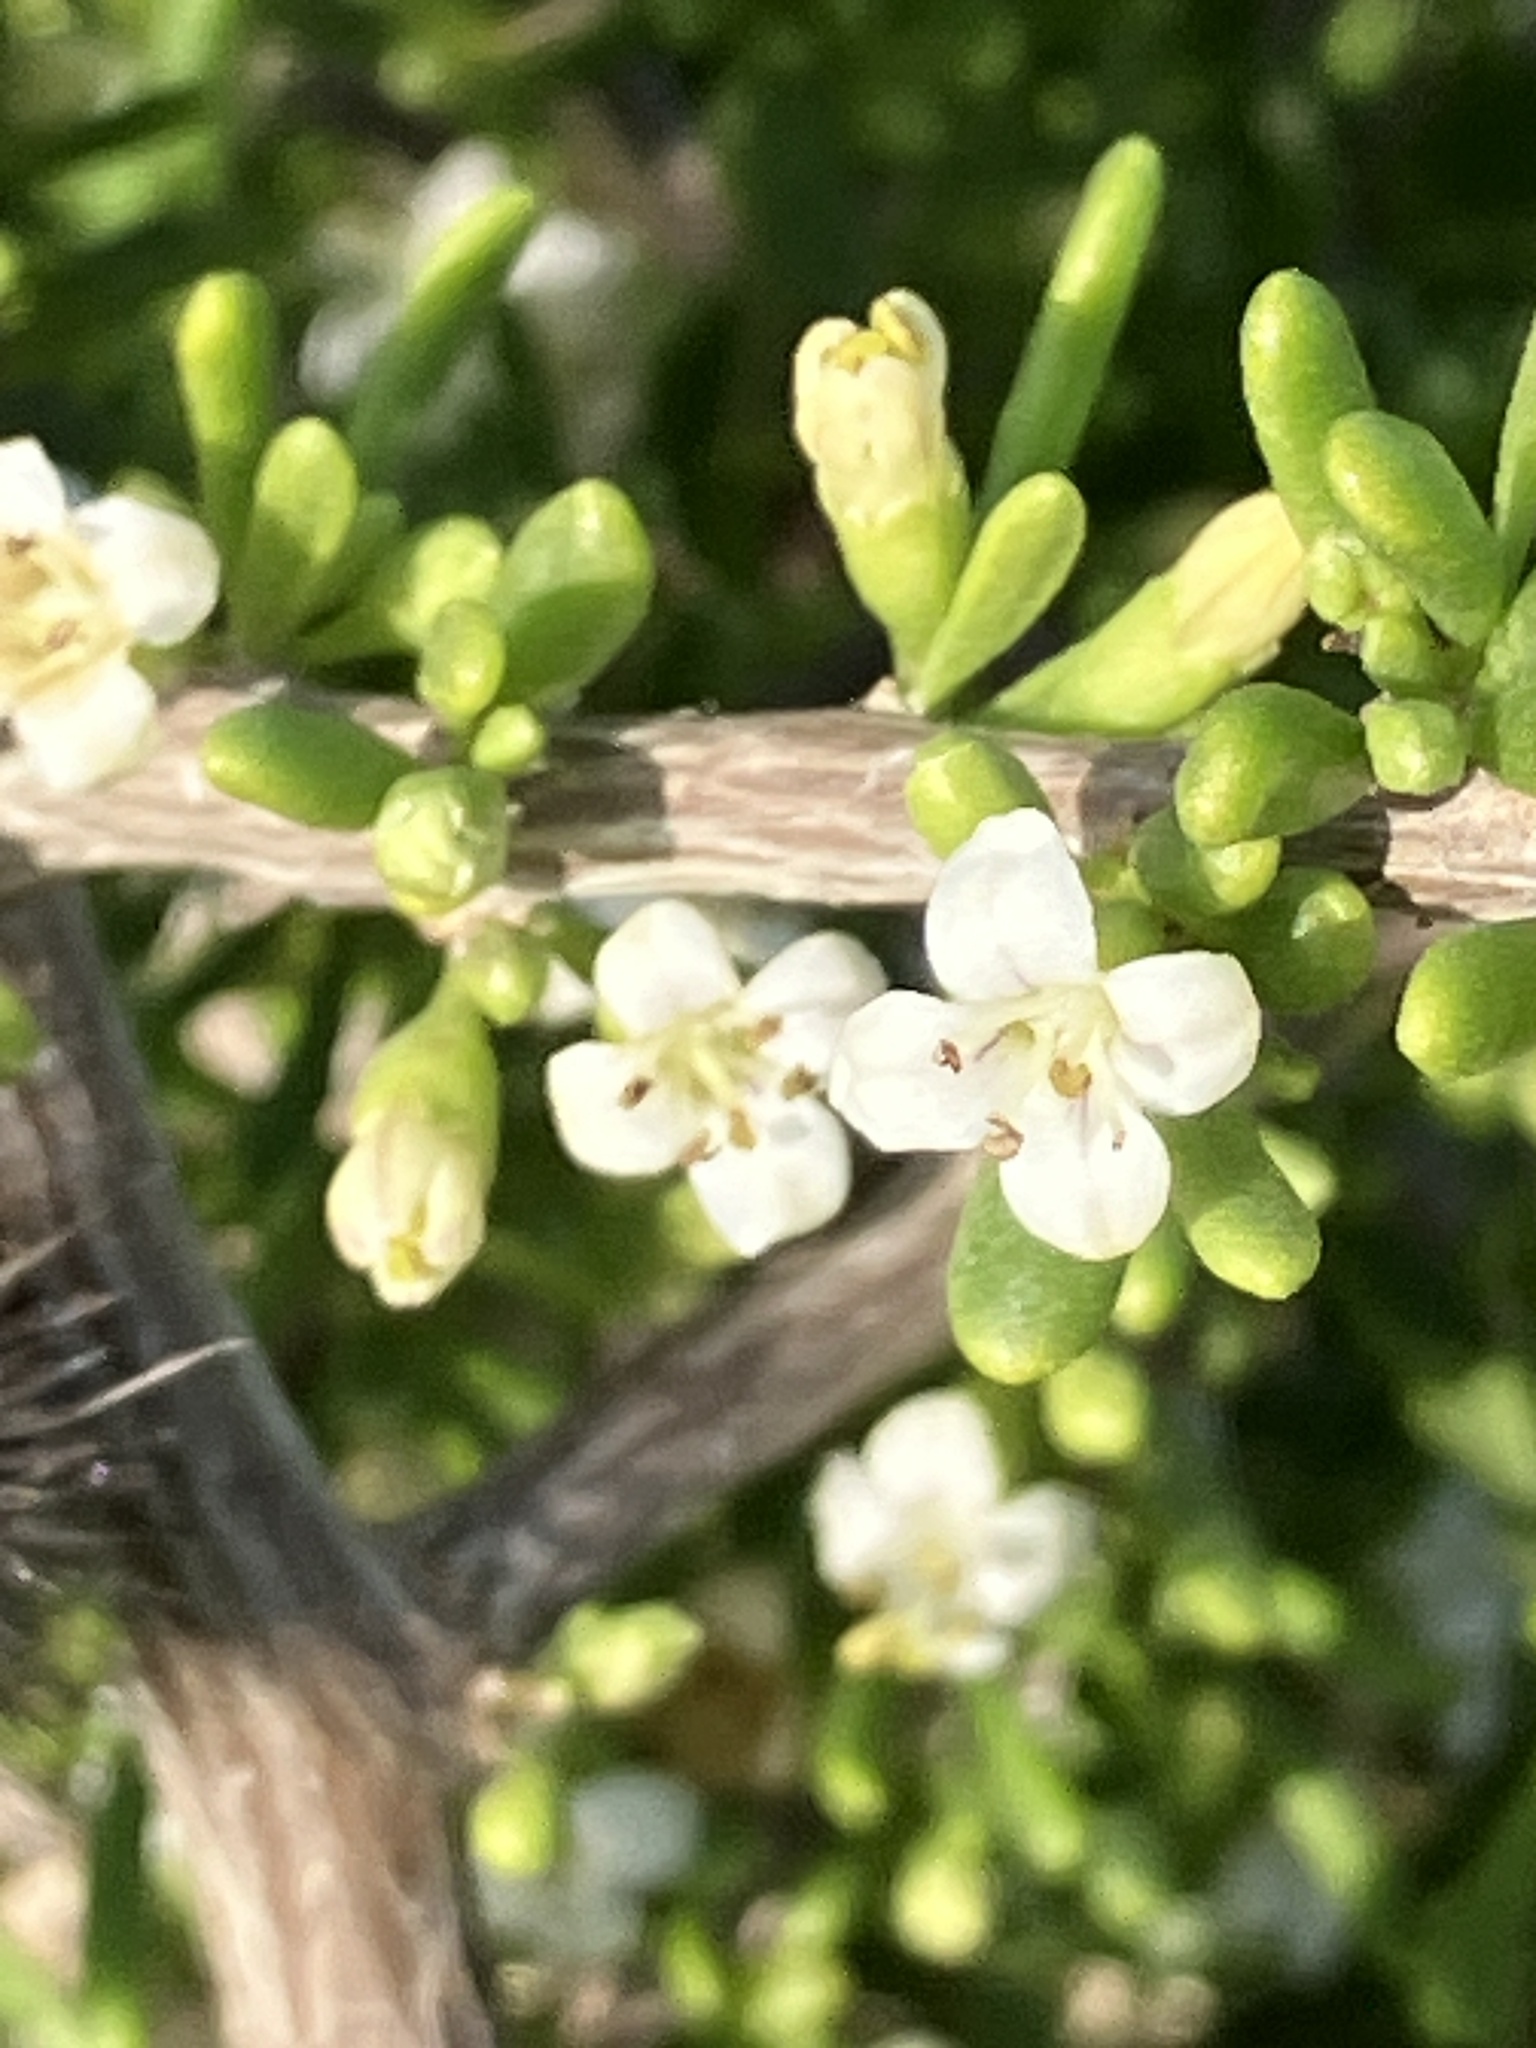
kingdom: Plantae
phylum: Tracheophyta
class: Magnoliopsida
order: Solanales
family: Solanaceae
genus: Lycium
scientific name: Lycium californicum
